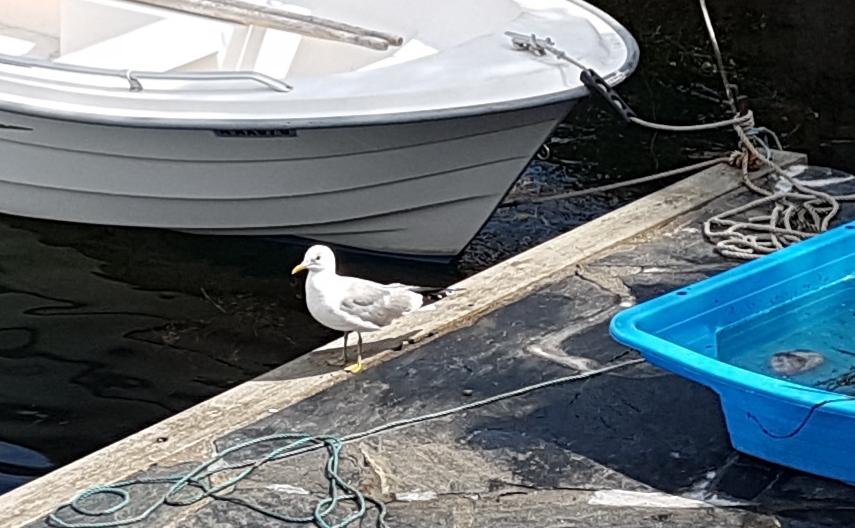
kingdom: Animalia
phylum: Chordata
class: Aves
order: Charadriiformes
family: Laridae
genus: Larus
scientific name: Larus canus
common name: Mew gull
